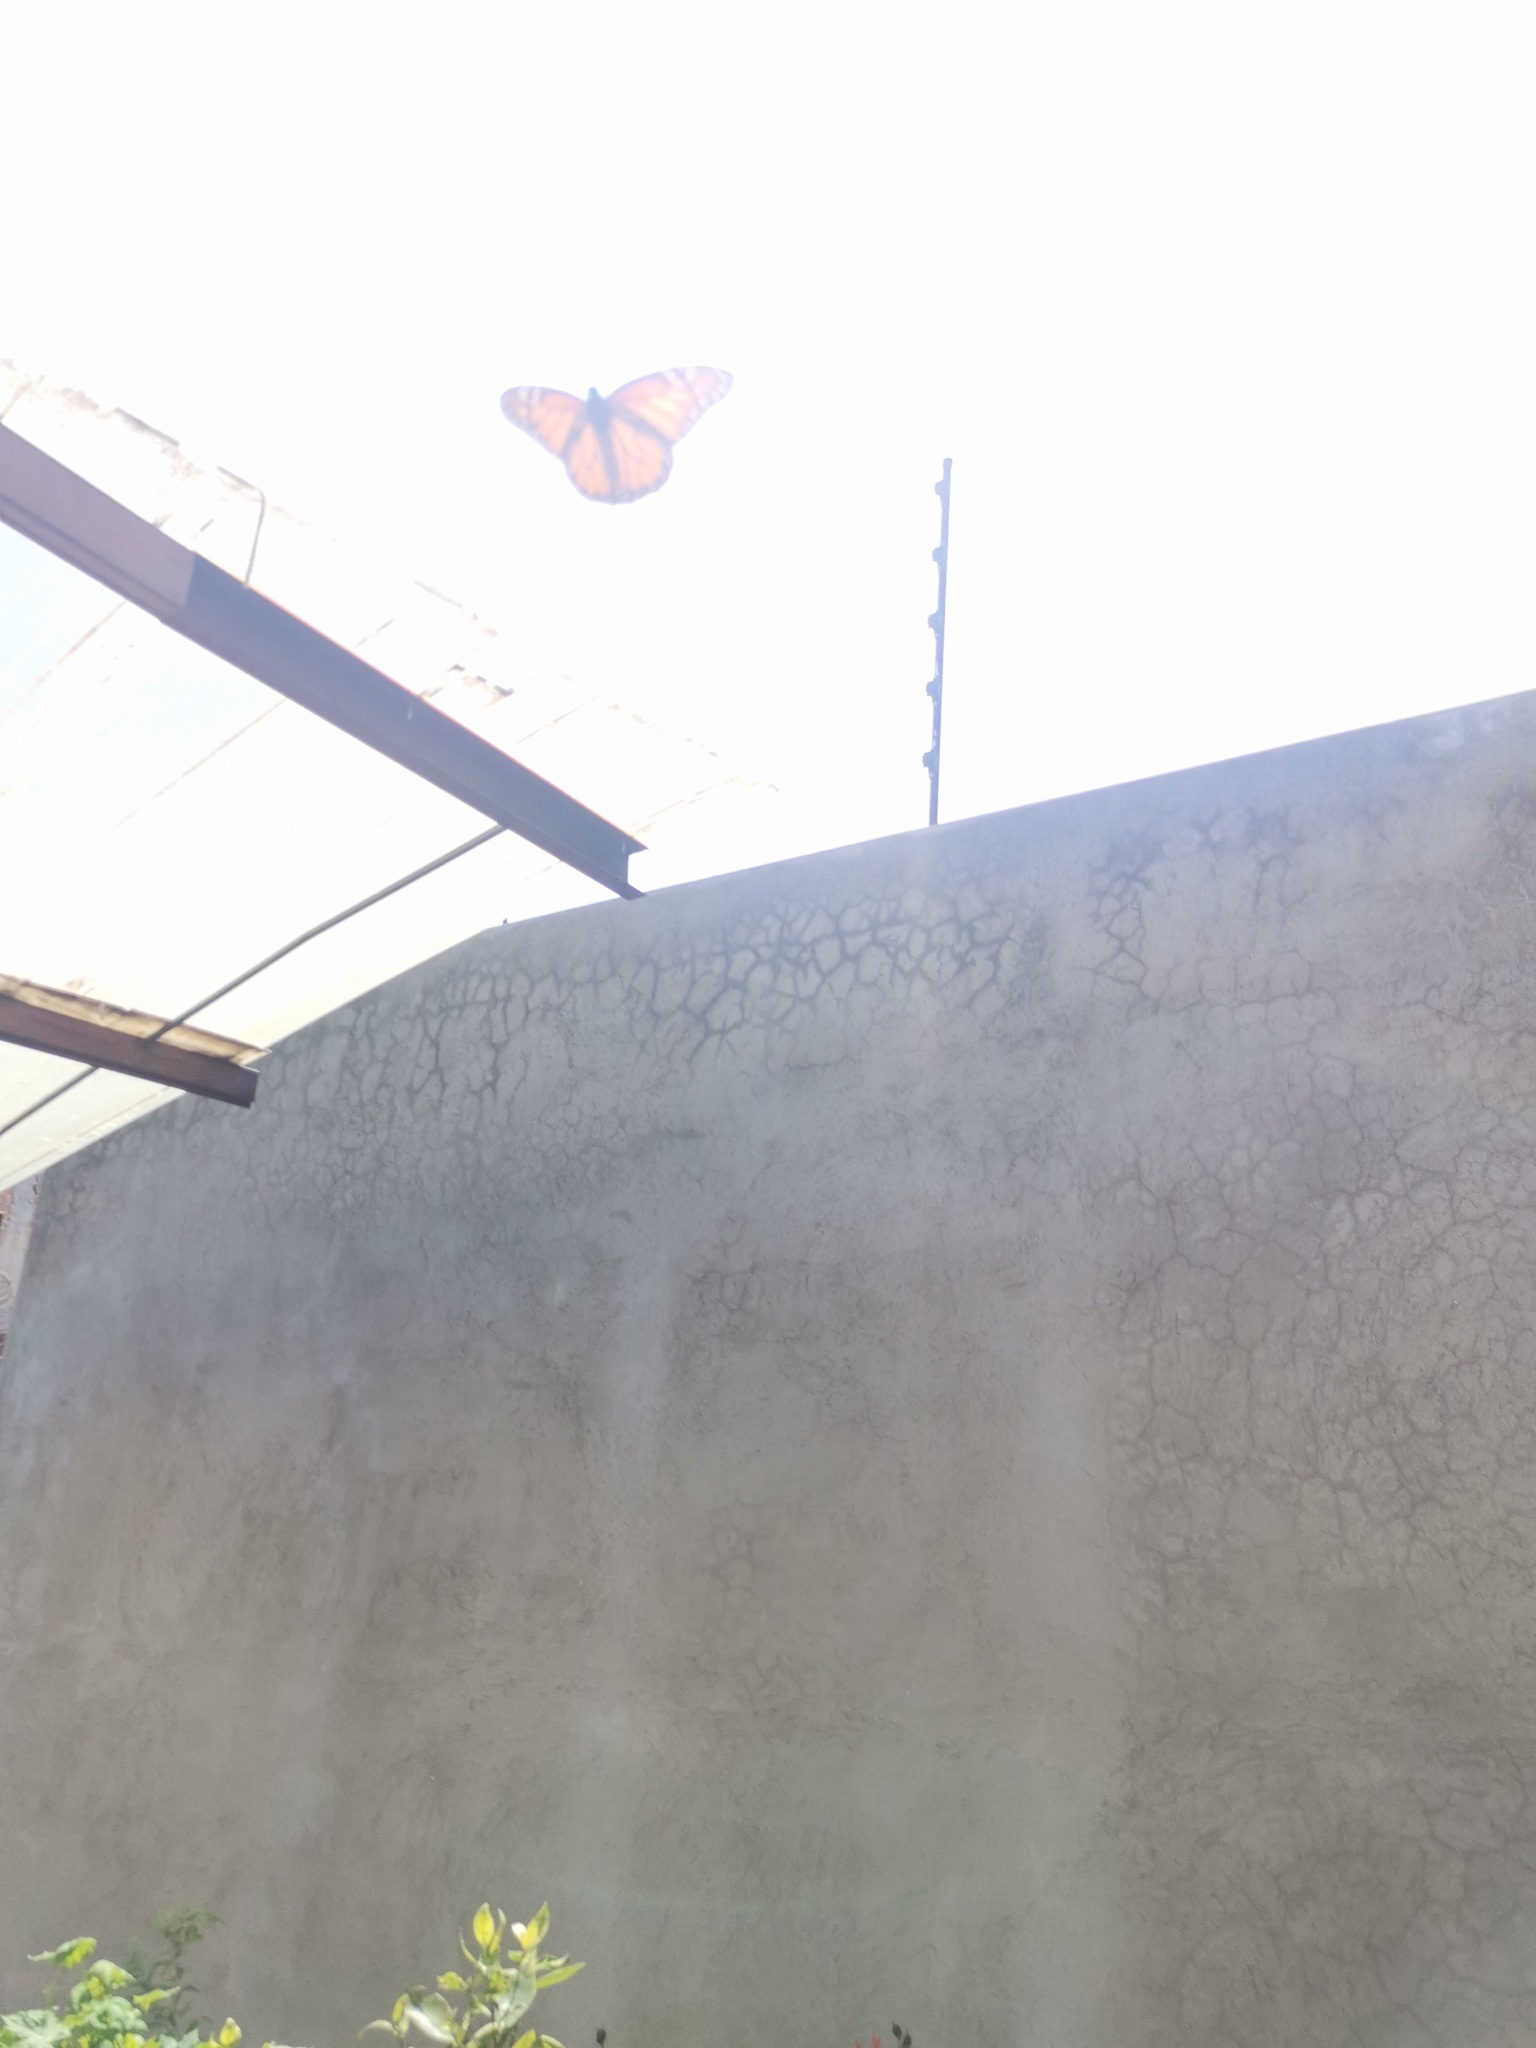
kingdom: Animalia
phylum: Arthropoda
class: Insecta
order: Lepidoptera
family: Nymphalidae
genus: Danaus
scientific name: Danaus plexippus
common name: Monarch
